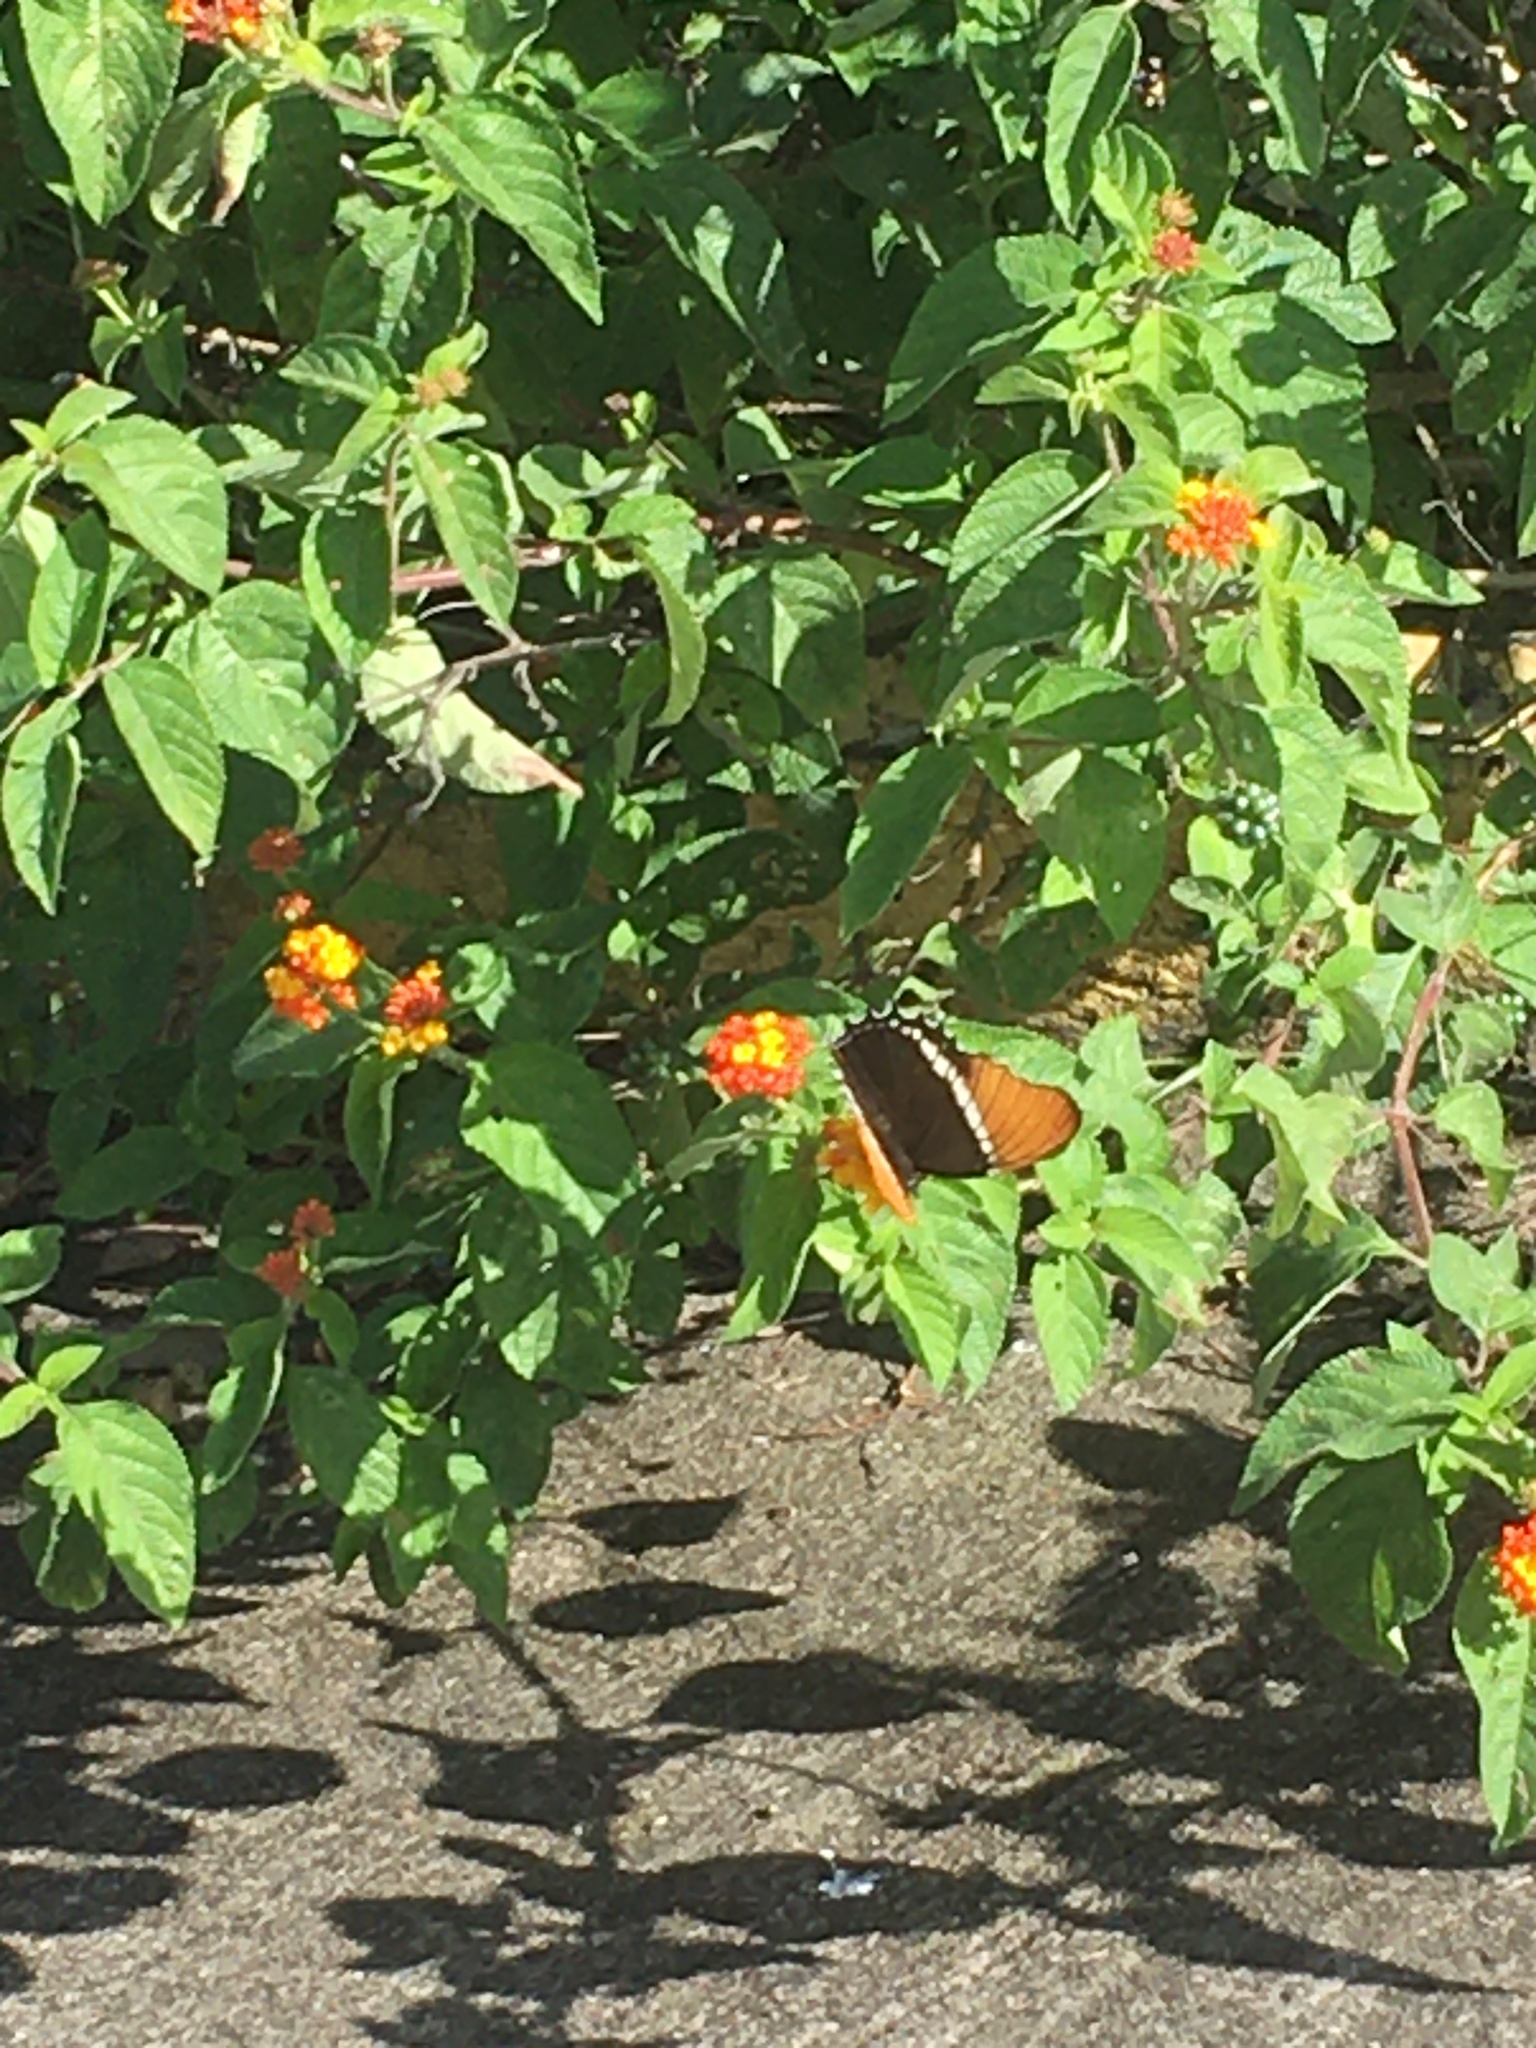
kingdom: Animalia
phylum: Arthropoda
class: Insecta
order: Lepidoptera
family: Nymphalidae
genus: Siproeta
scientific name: Siproeta epaphus
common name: Rusty-tipped page
